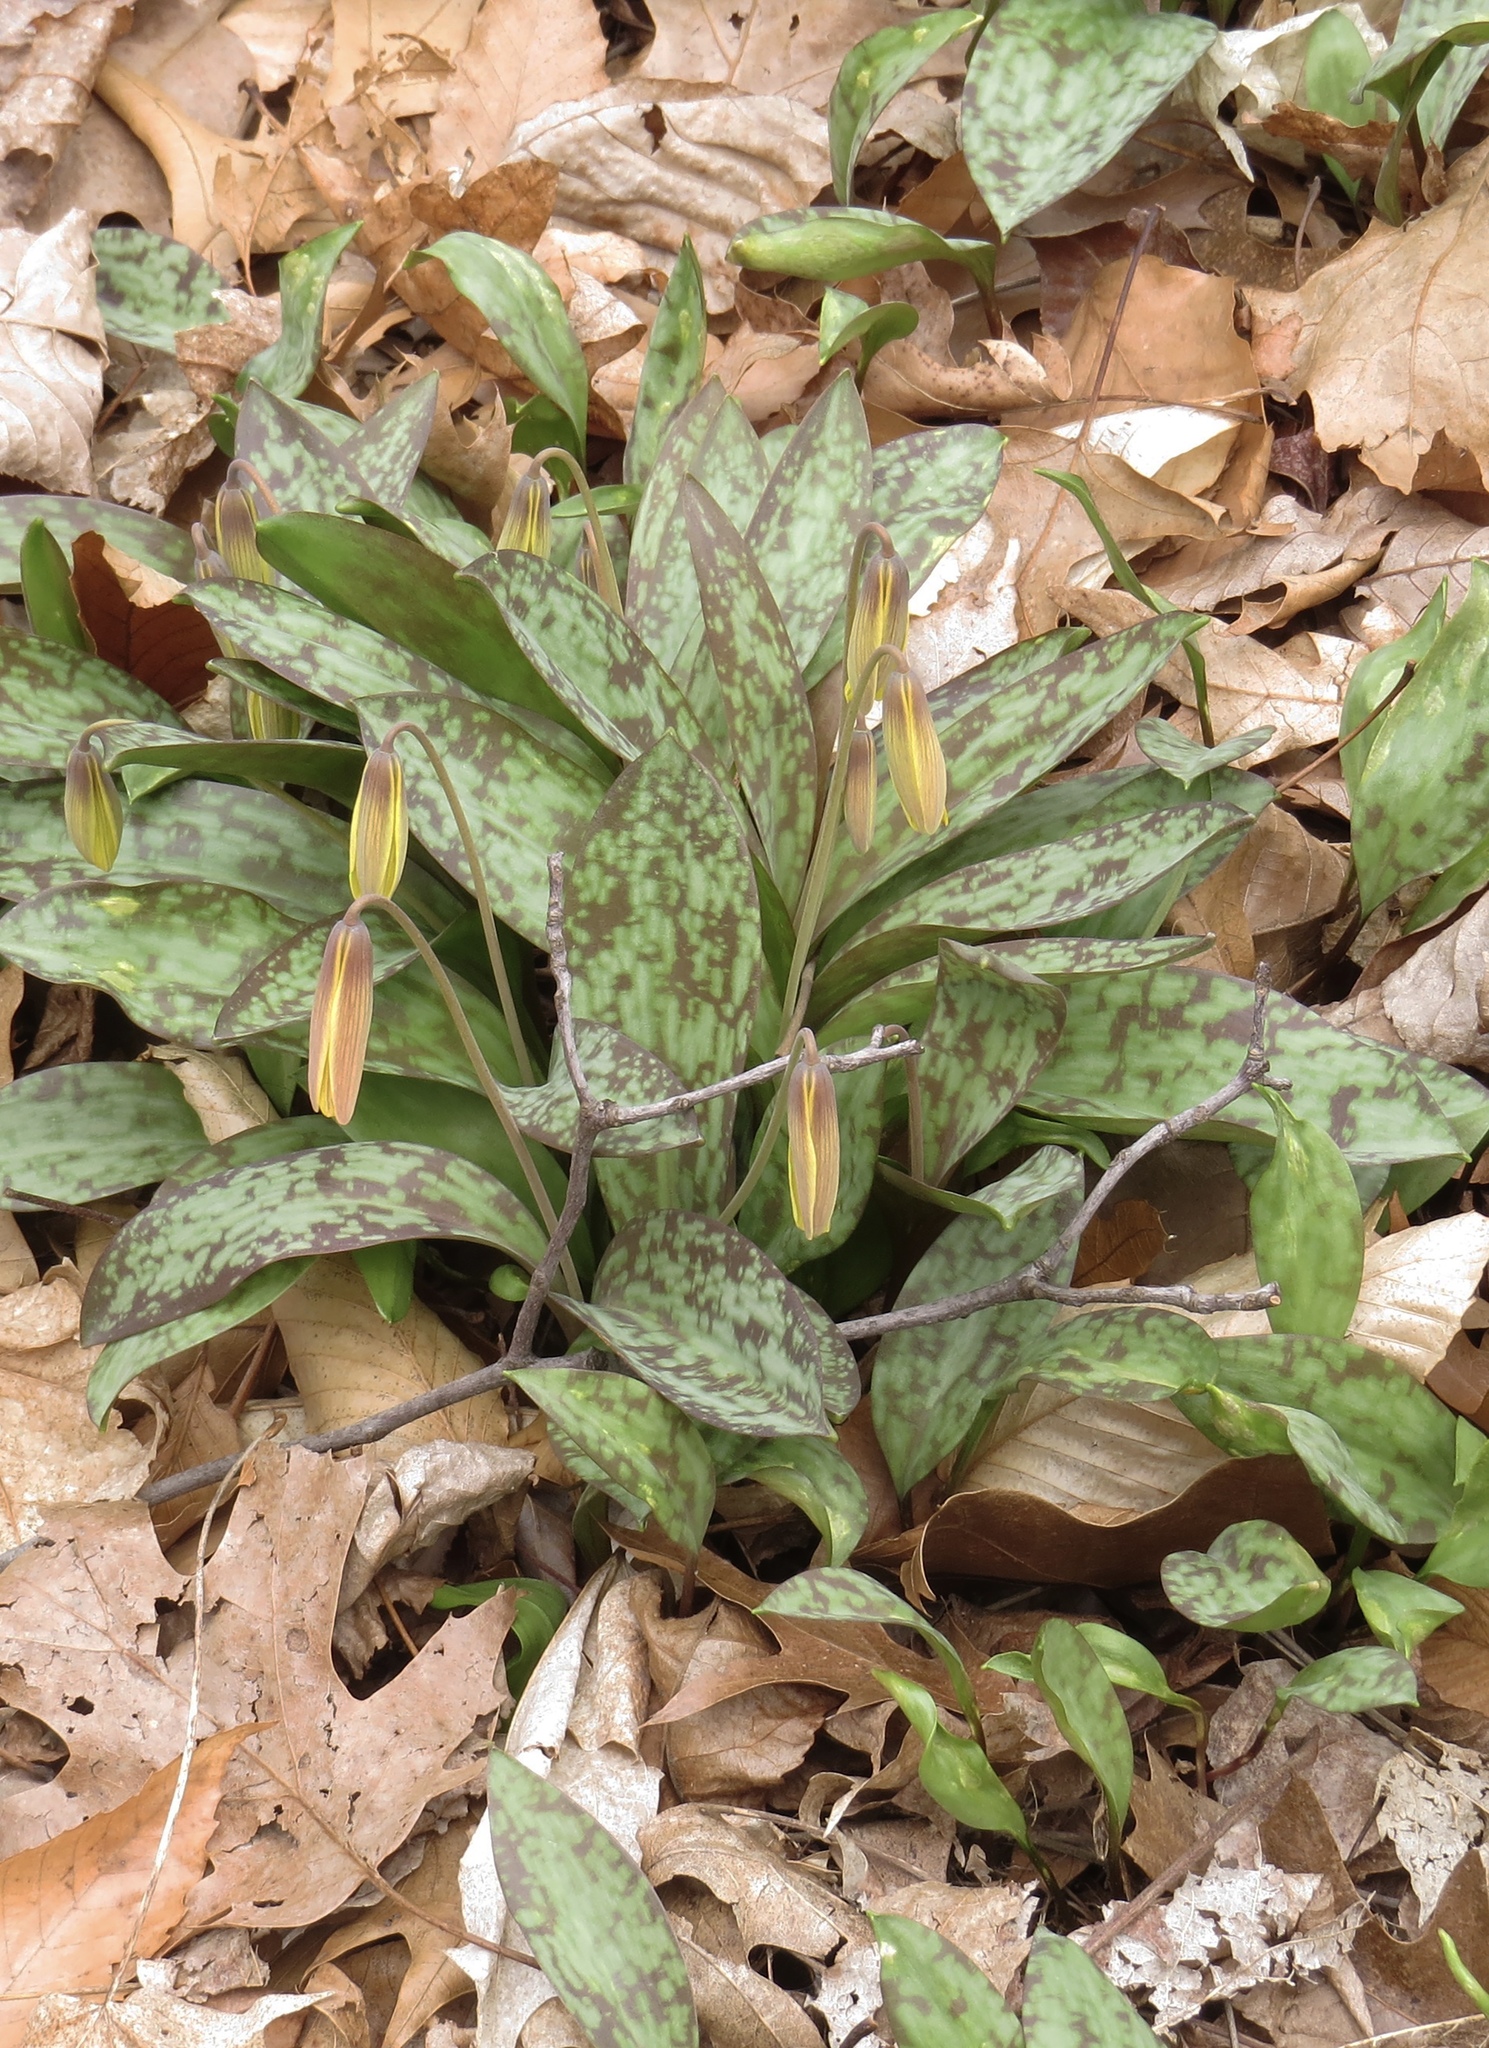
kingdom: Plantae
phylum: Tracheophyta
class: Liliopsida
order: Liliales
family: Liliaceae
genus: Erythronium
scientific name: Erythronium americanum
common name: Yellow adder's-tongue
